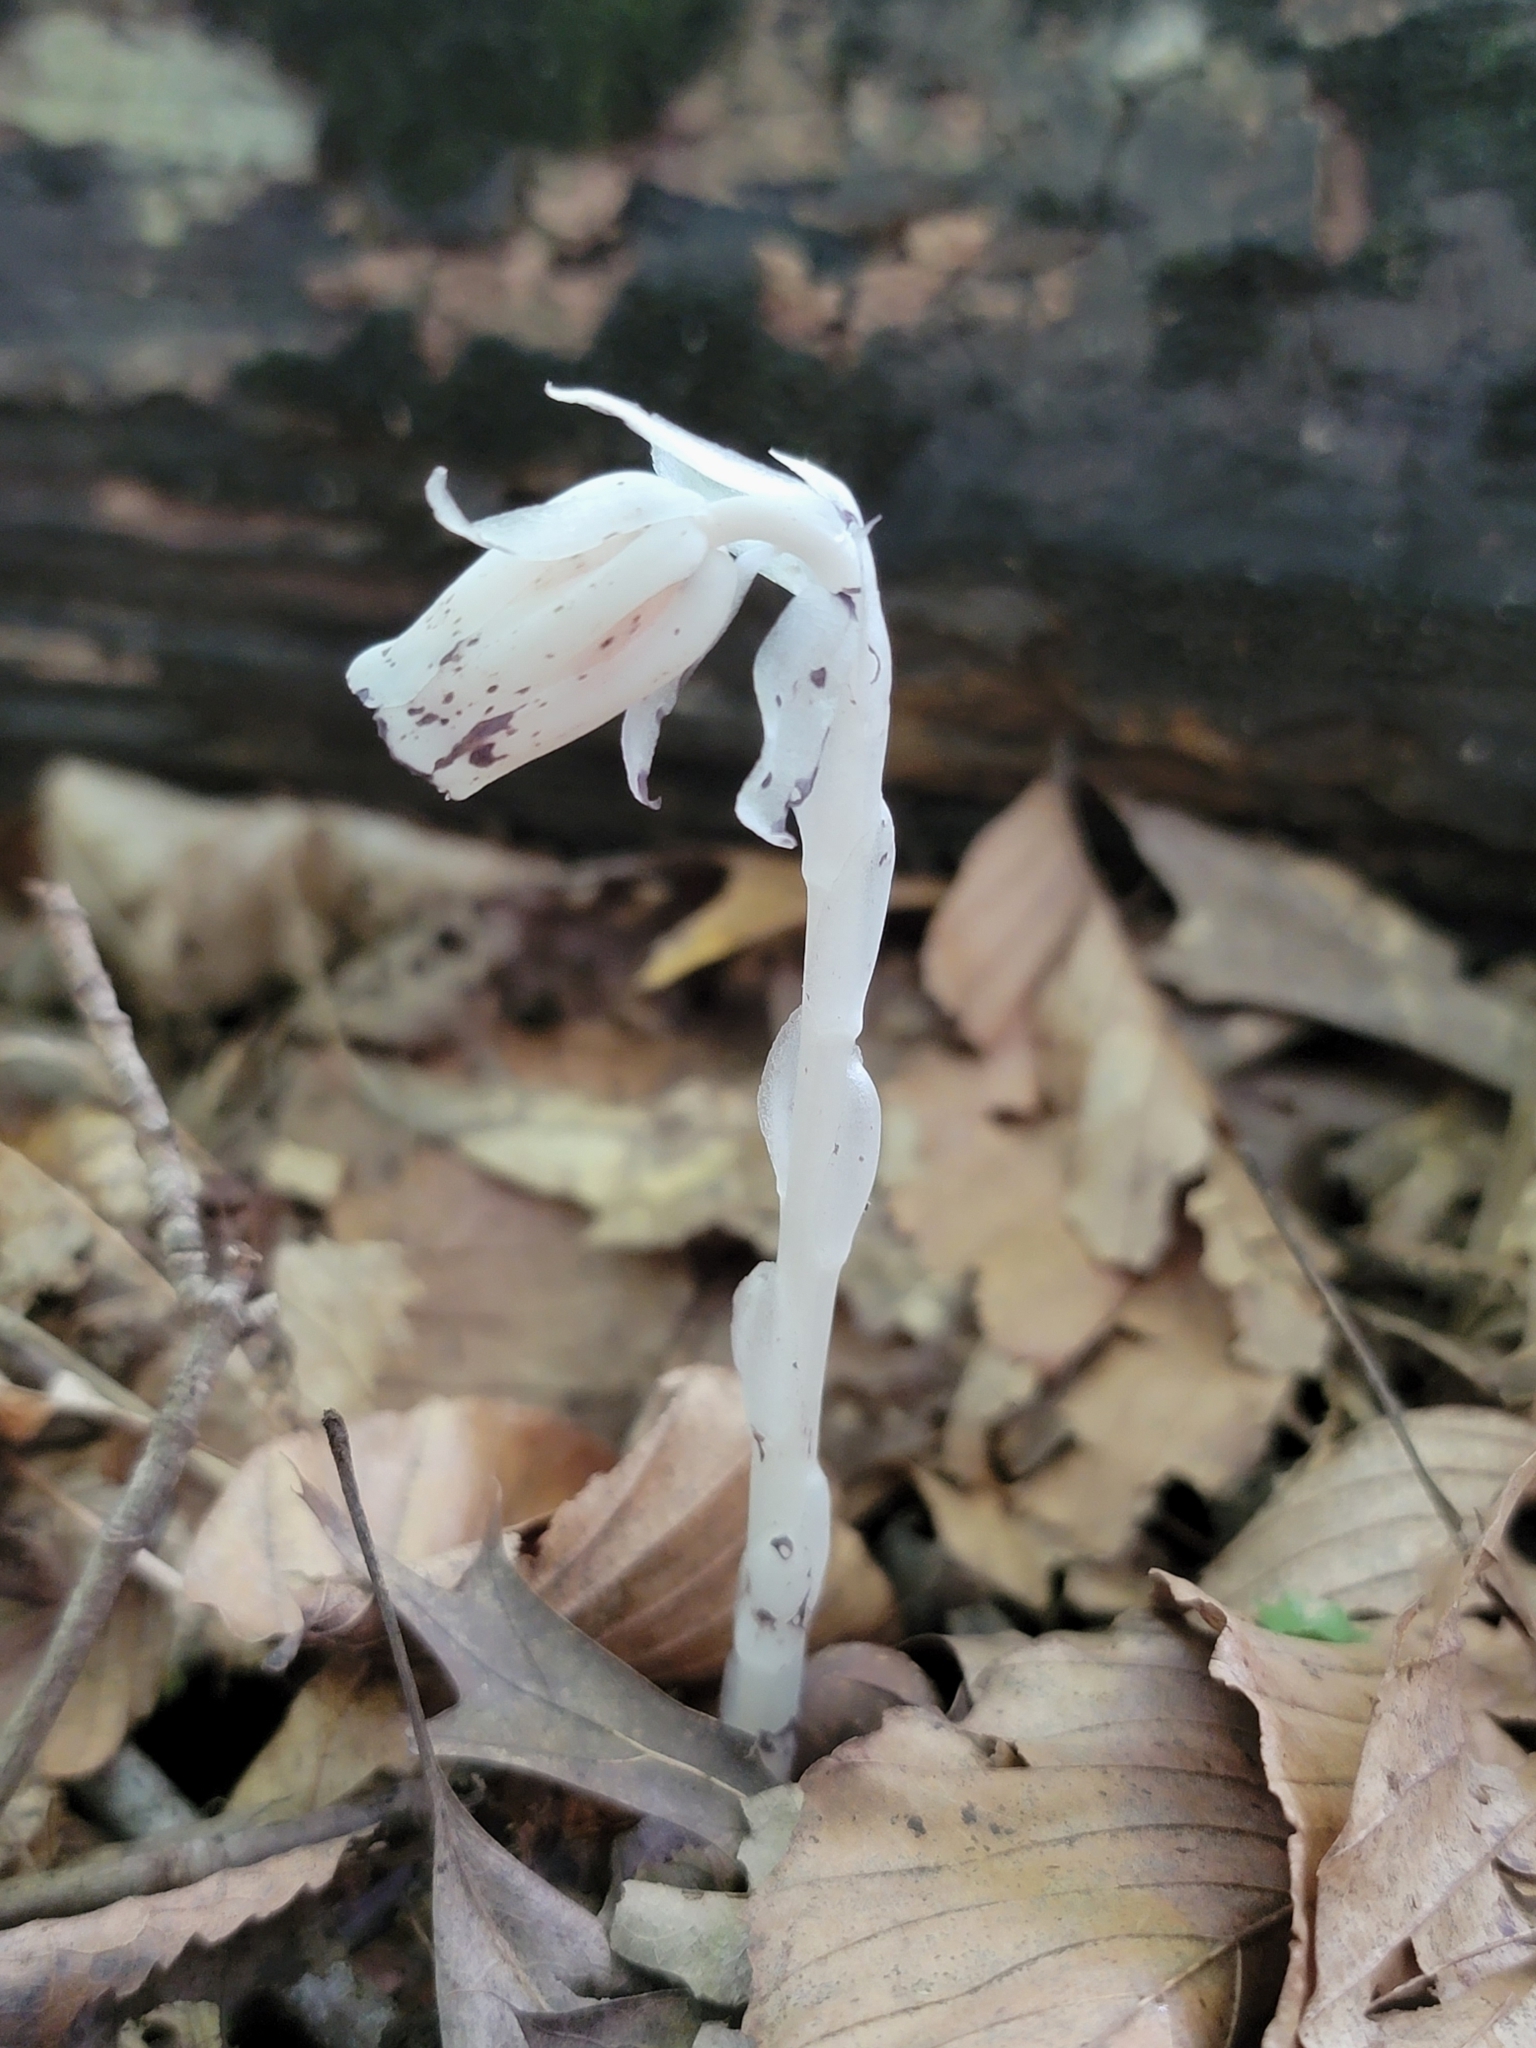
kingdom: Plantae
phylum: Tracheophyta
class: Magnoliopsida
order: Ericales
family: Ericaceae
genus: Monotropa
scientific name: Monotropa uniflora
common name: Convulsion root
